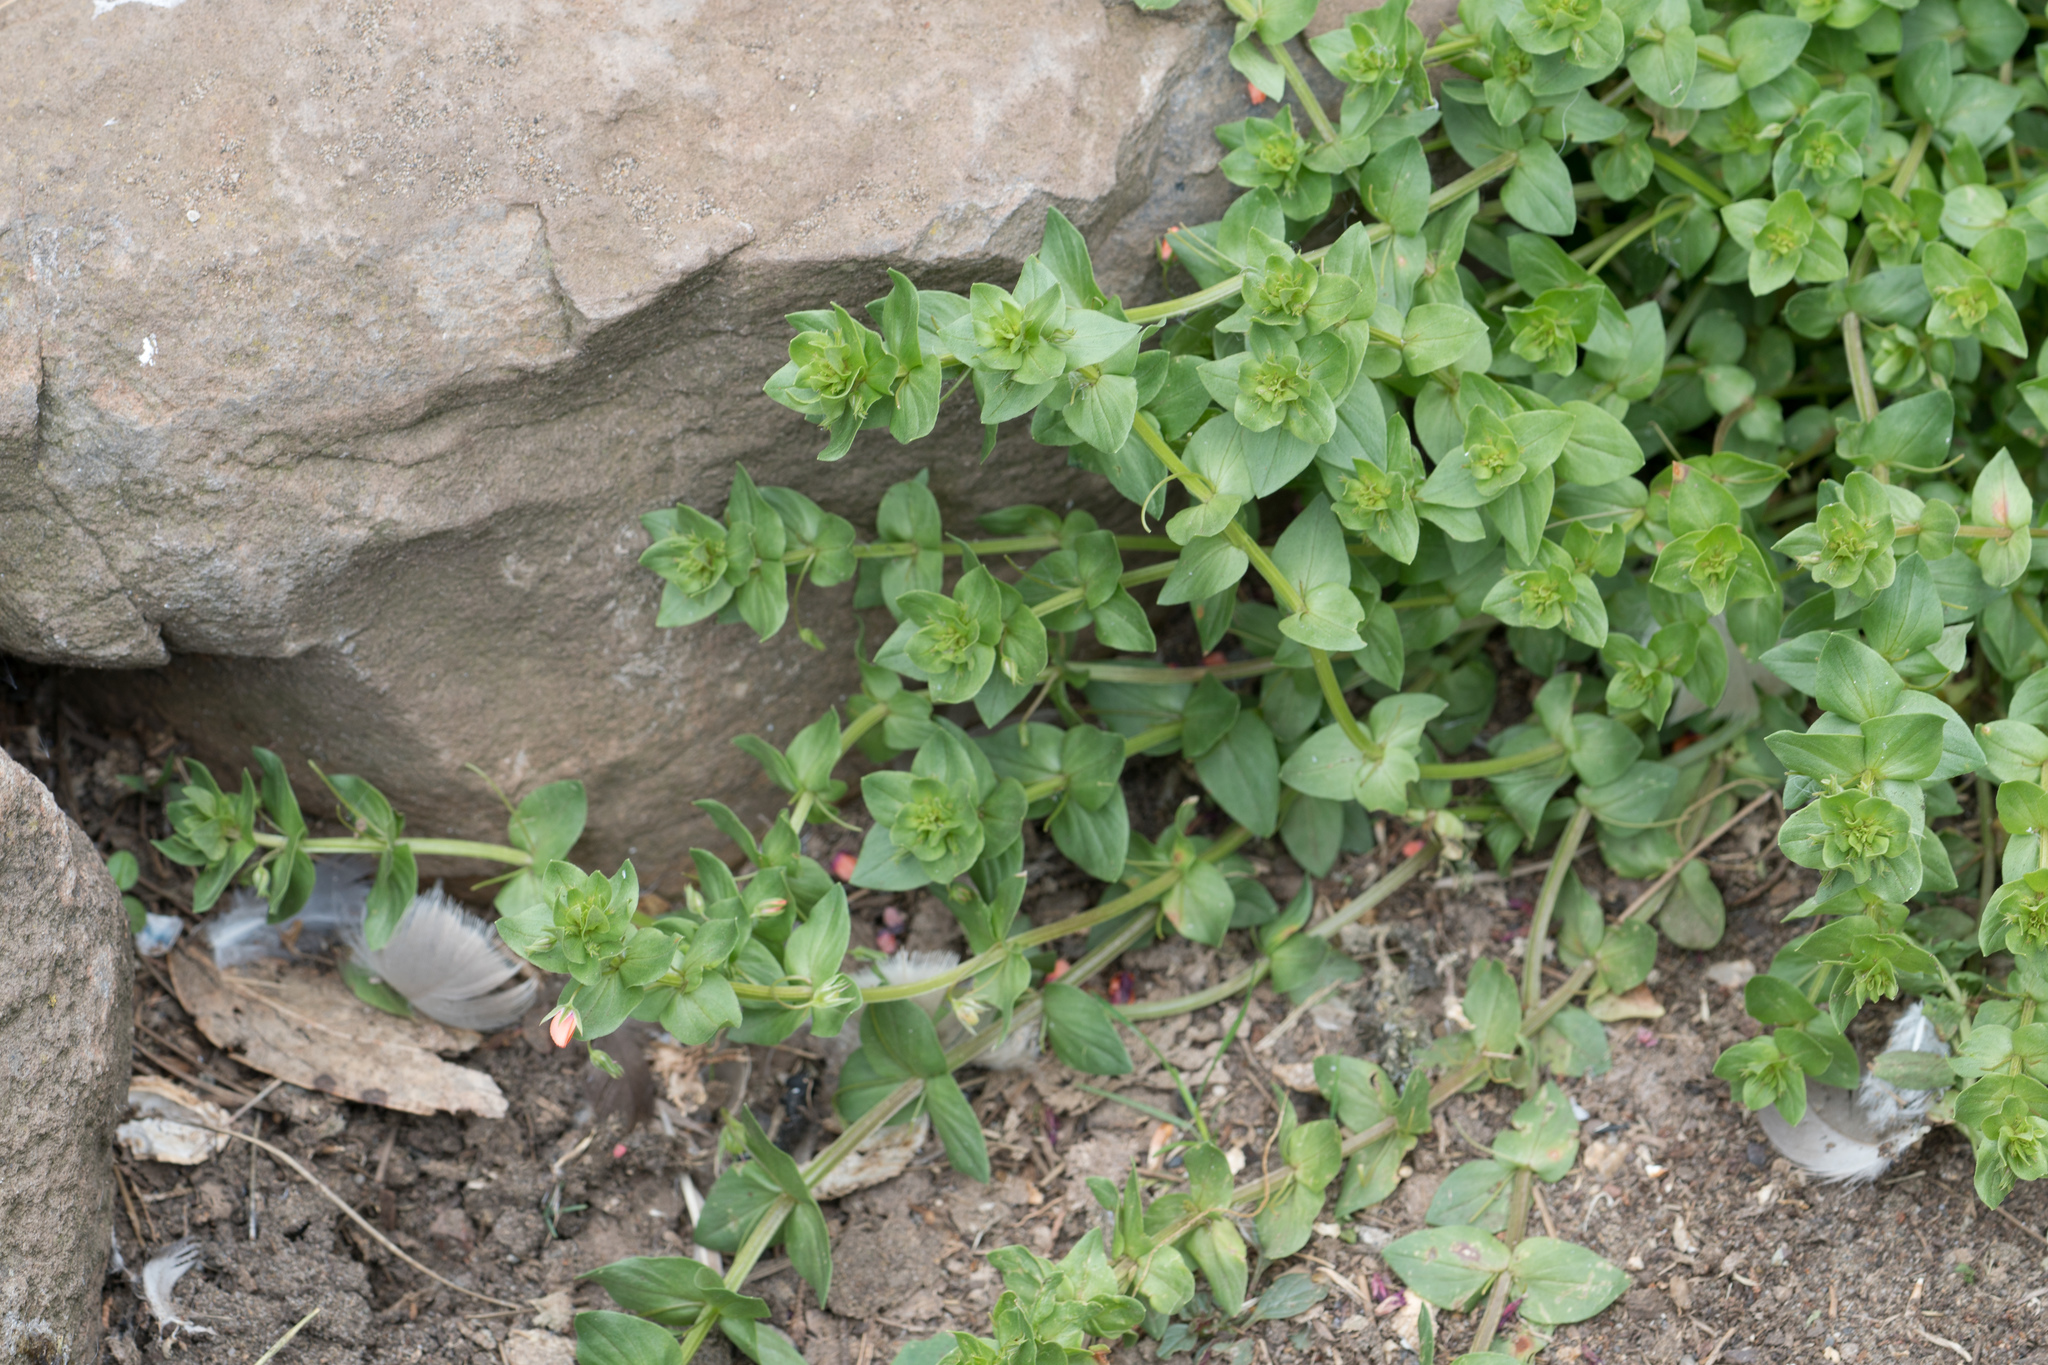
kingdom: Plantae
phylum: Tracheophyta
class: Magnoliopsida
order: Ericales
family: Primulaceae
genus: Lysimachia
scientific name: Lysimachia arvensis
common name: Scarlet pimpernel
